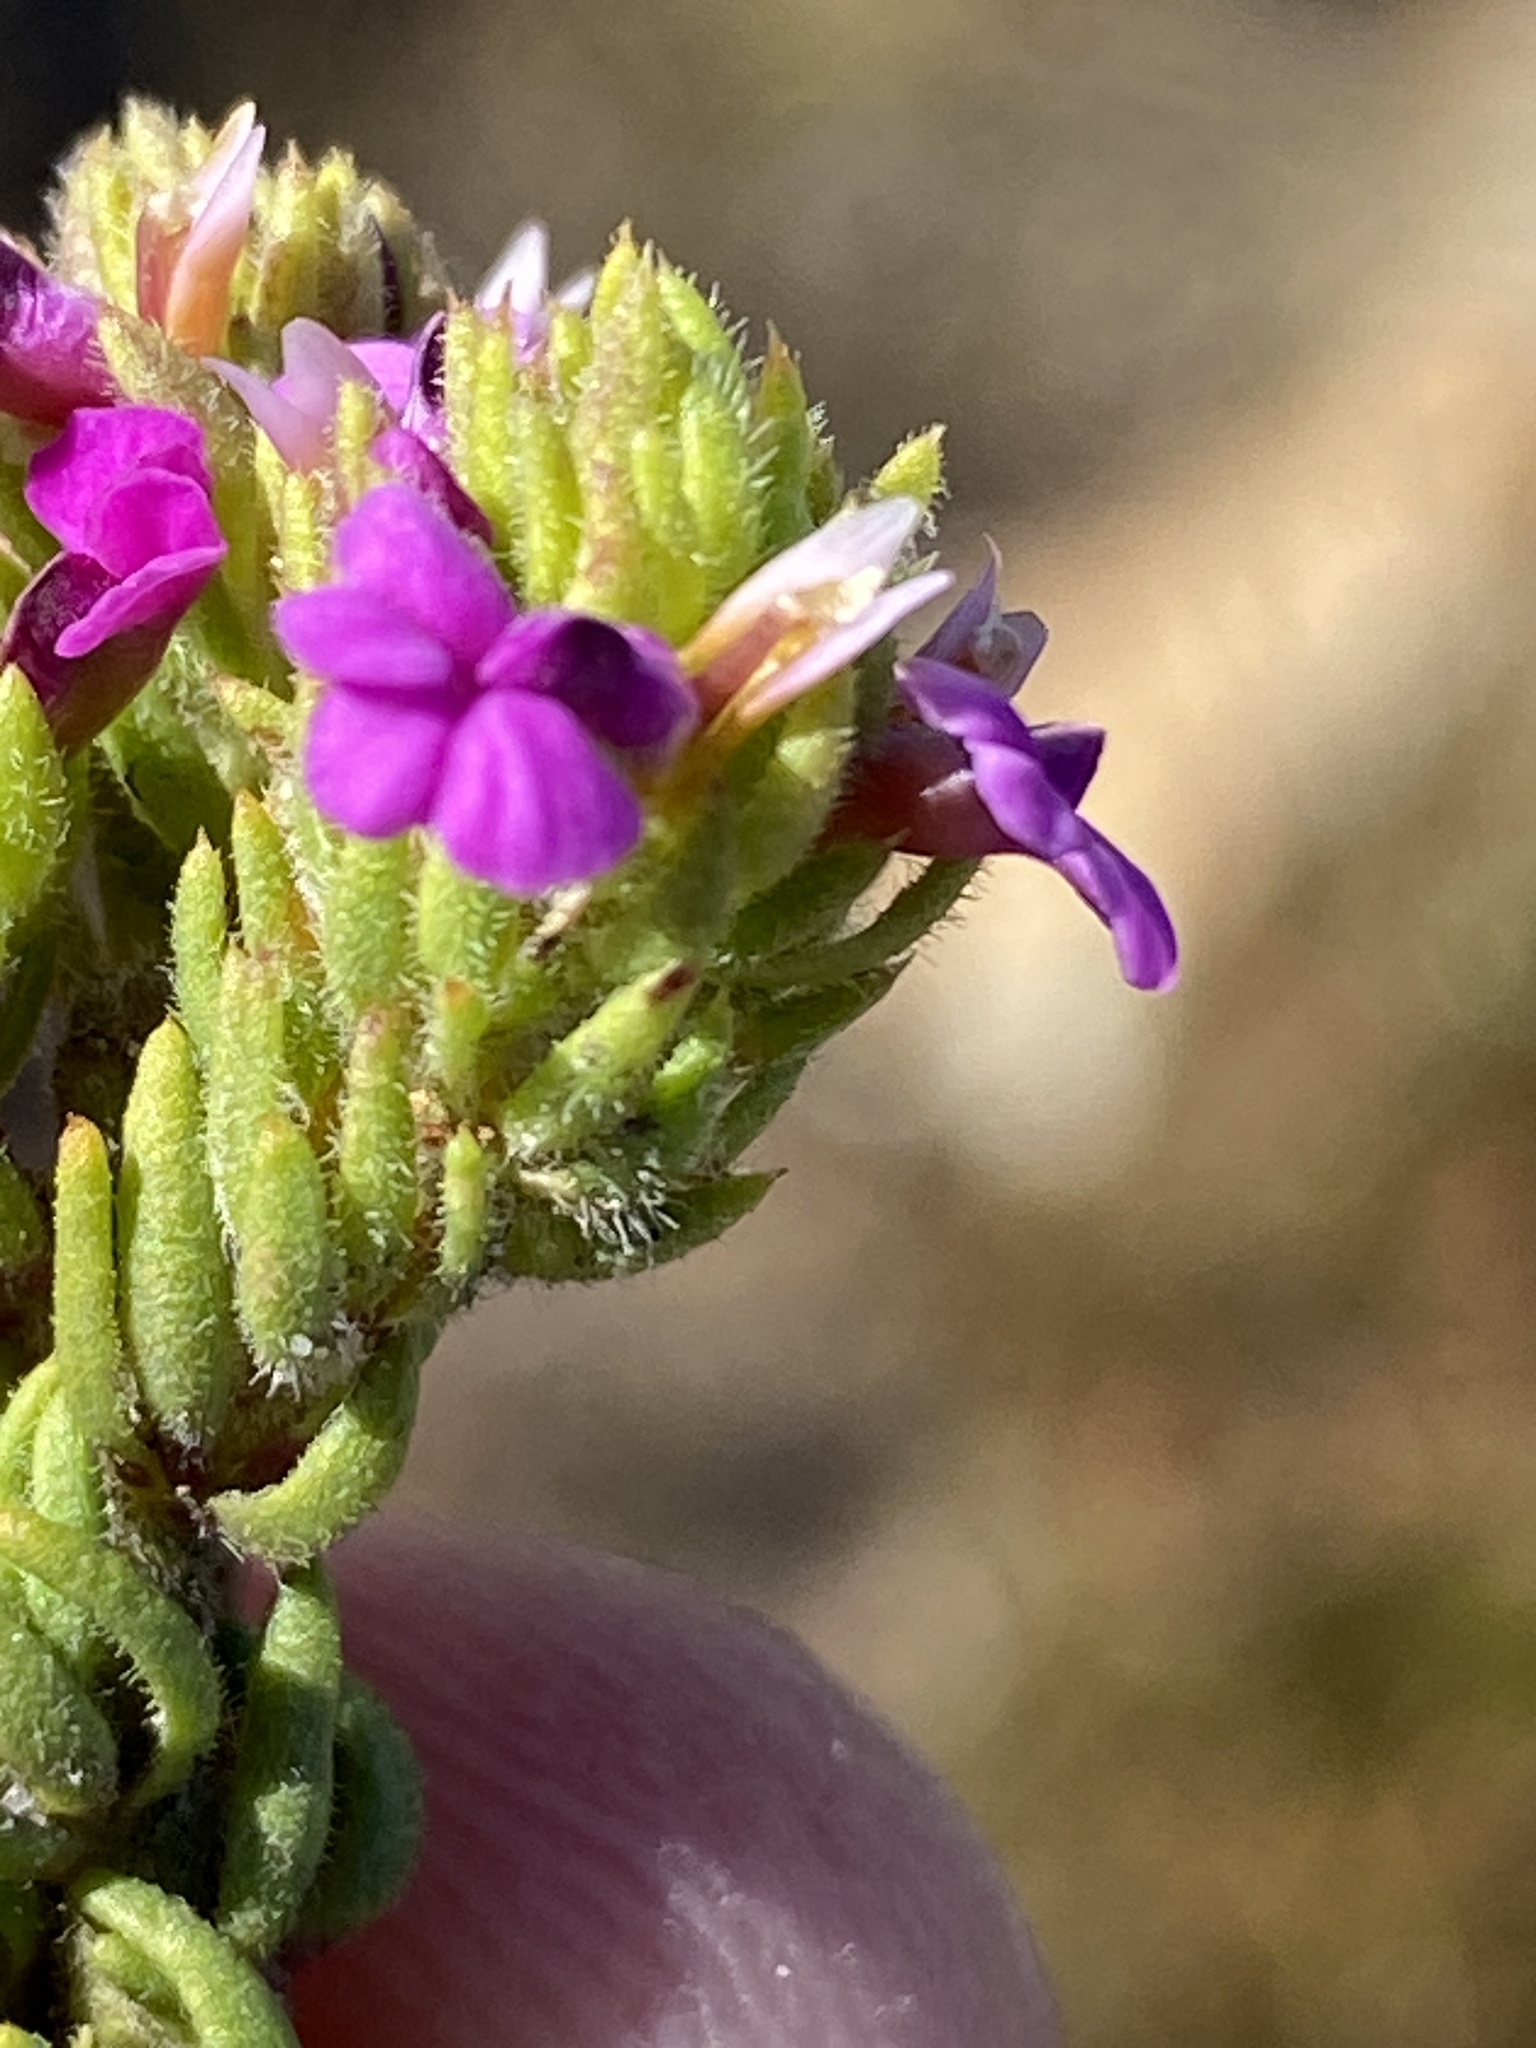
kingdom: Plantae
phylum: Tracheophyta
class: Magnoliopsida
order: Fabales
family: Polygalaceae
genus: Muraltia
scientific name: Muraltia alopecuroides
